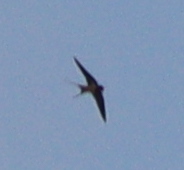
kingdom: Animalia
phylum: Chordata
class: Aves
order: Passeriformes
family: Hirundinidae
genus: Hirundo
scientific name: Hirundo rustica
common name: Barn swallow
